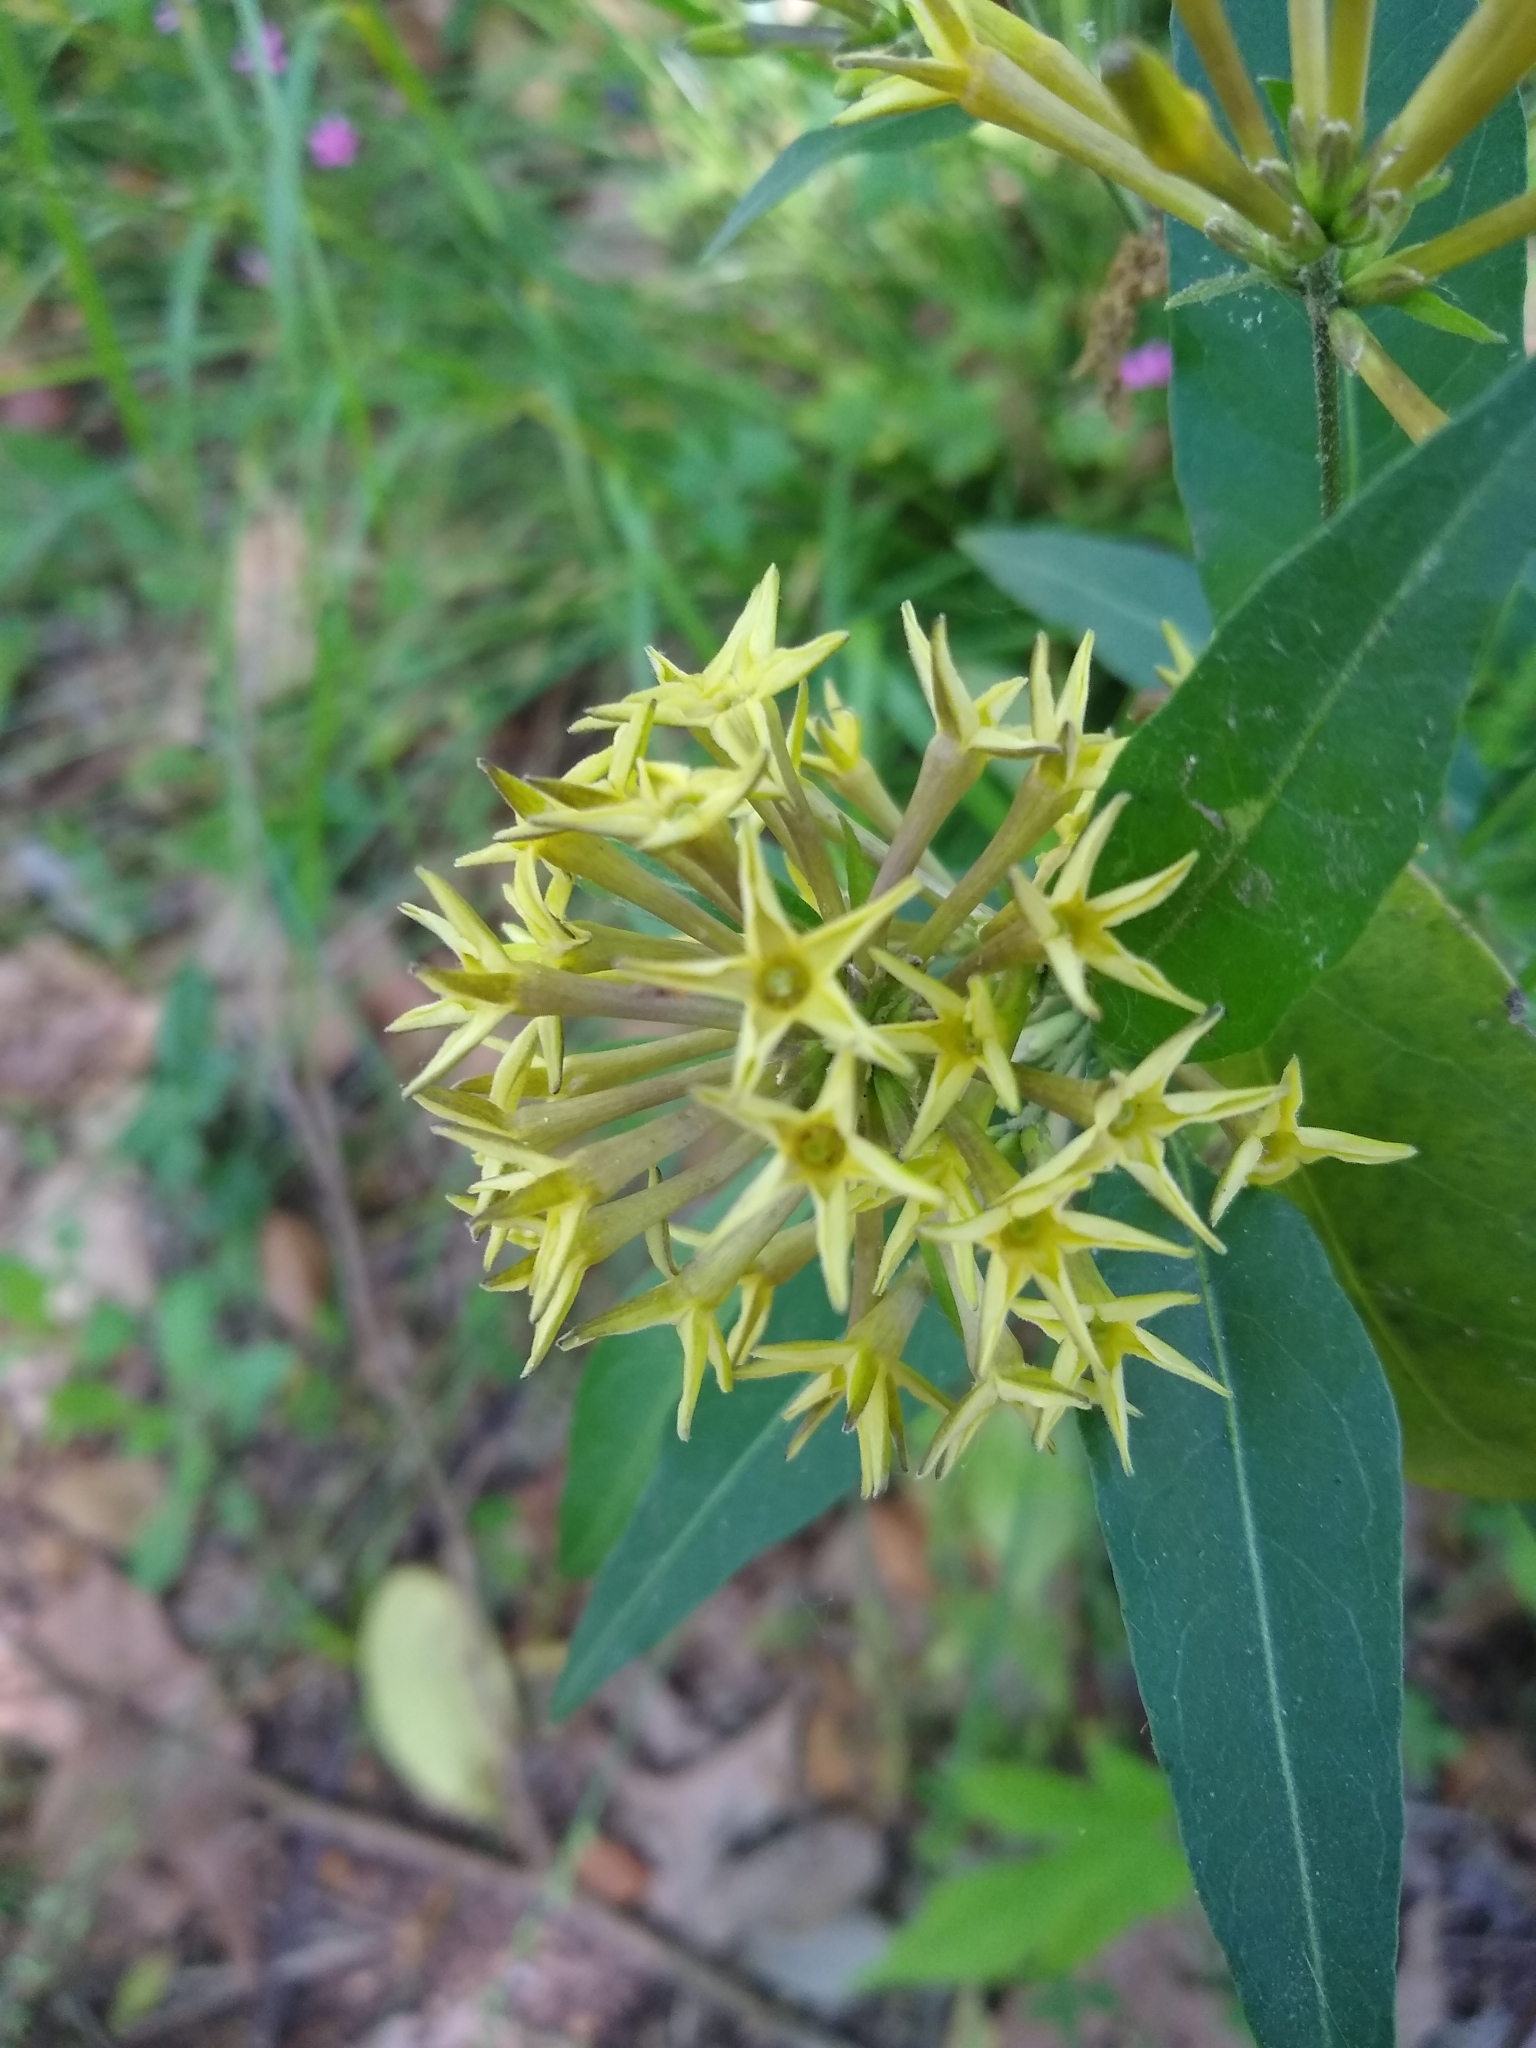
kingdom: Plantae
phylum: Tracheophyta
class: Magnoliopsida
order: Solanales
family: Solanaceae
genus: Cestrum
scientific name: Cestrum parqui
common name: Chilean cestrum
